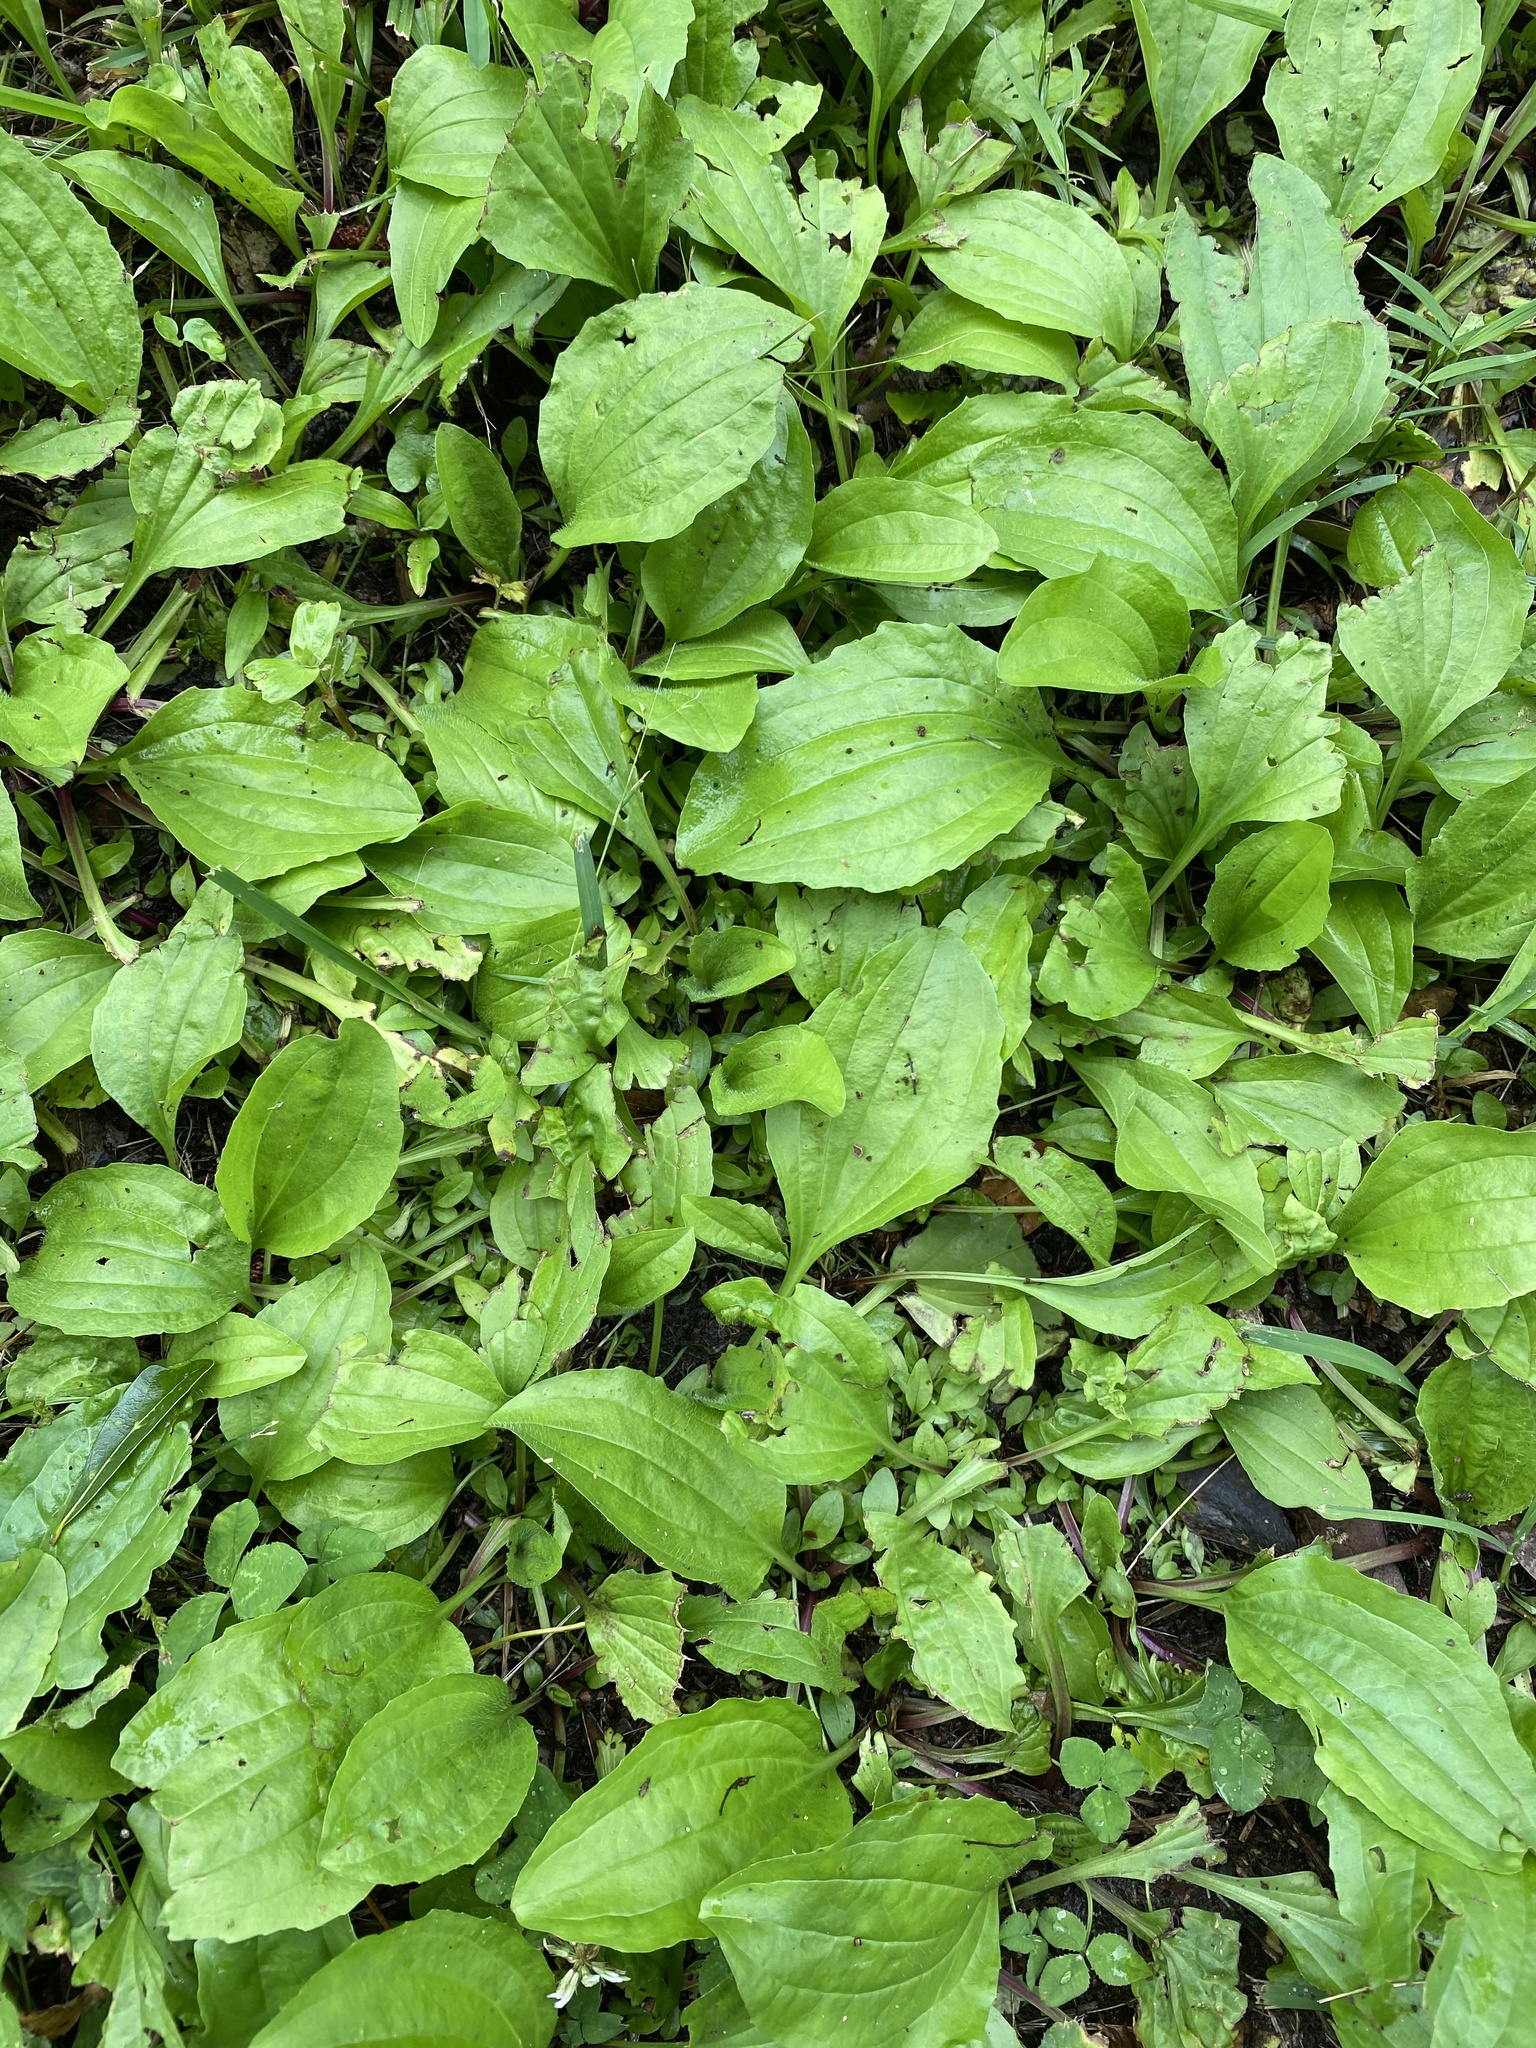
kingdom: Plantae
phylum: Tracheophyta
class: Magnoliopsida
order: Lamiales
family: Plantaginaceae
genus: Plantago
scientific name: Plantago rugelii
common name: American plantain
